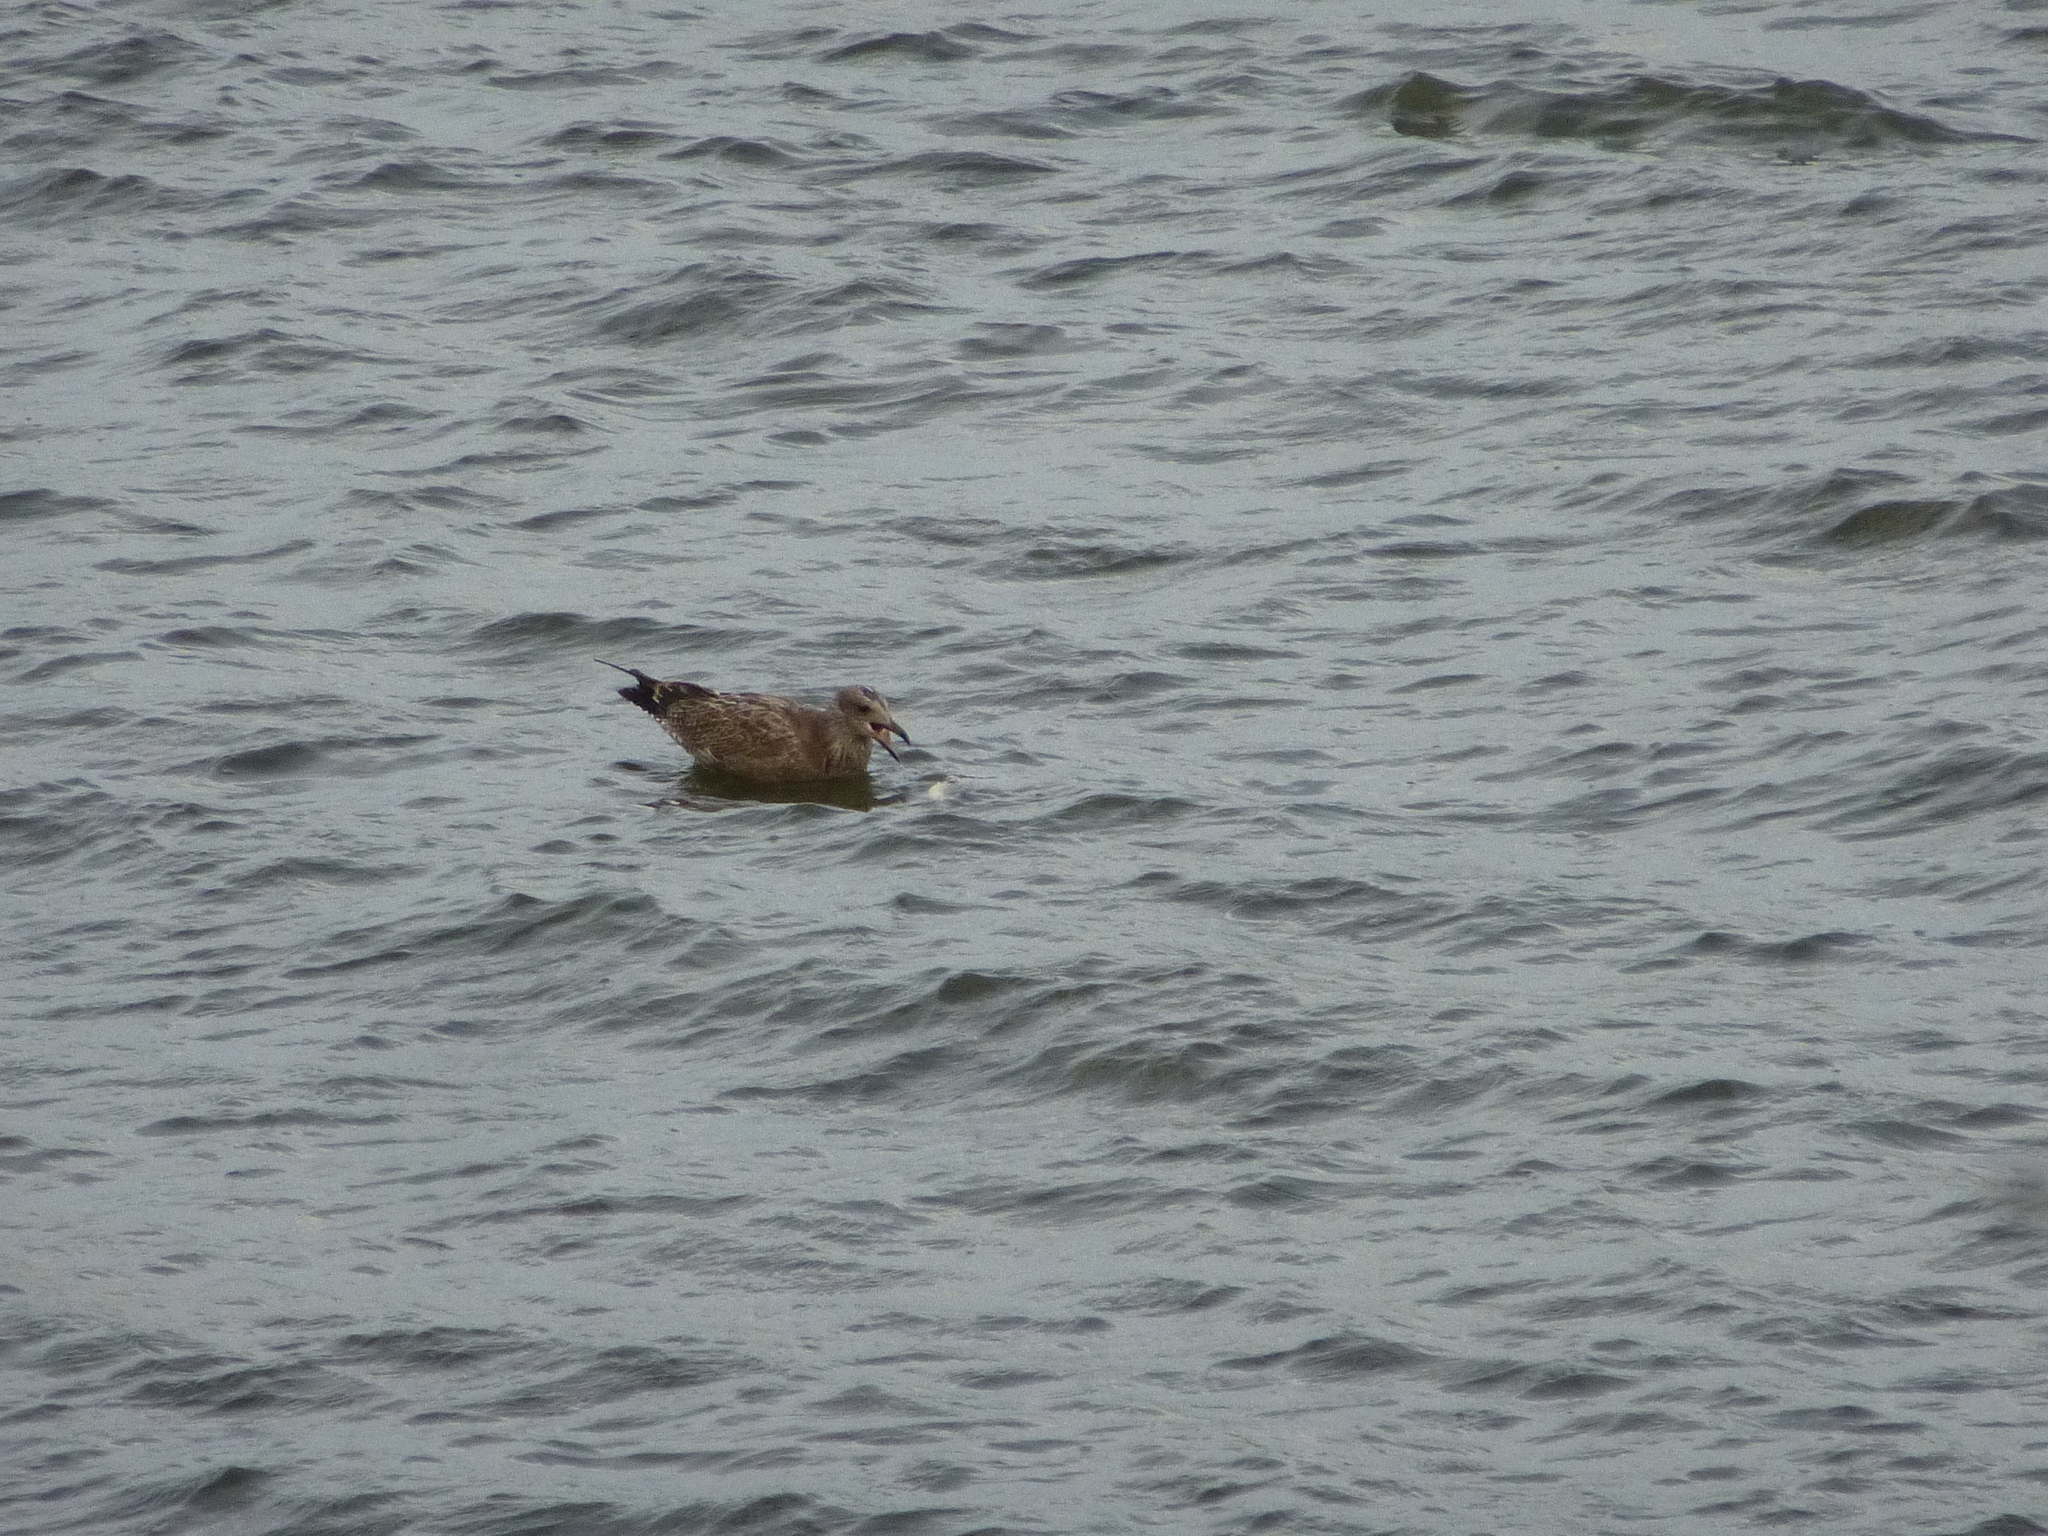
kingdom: Animalia
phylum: Chordata
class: Aves
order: Charadriiformes
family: Laridae
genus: Larus
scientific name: Larus argentatus
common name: Herring gull
